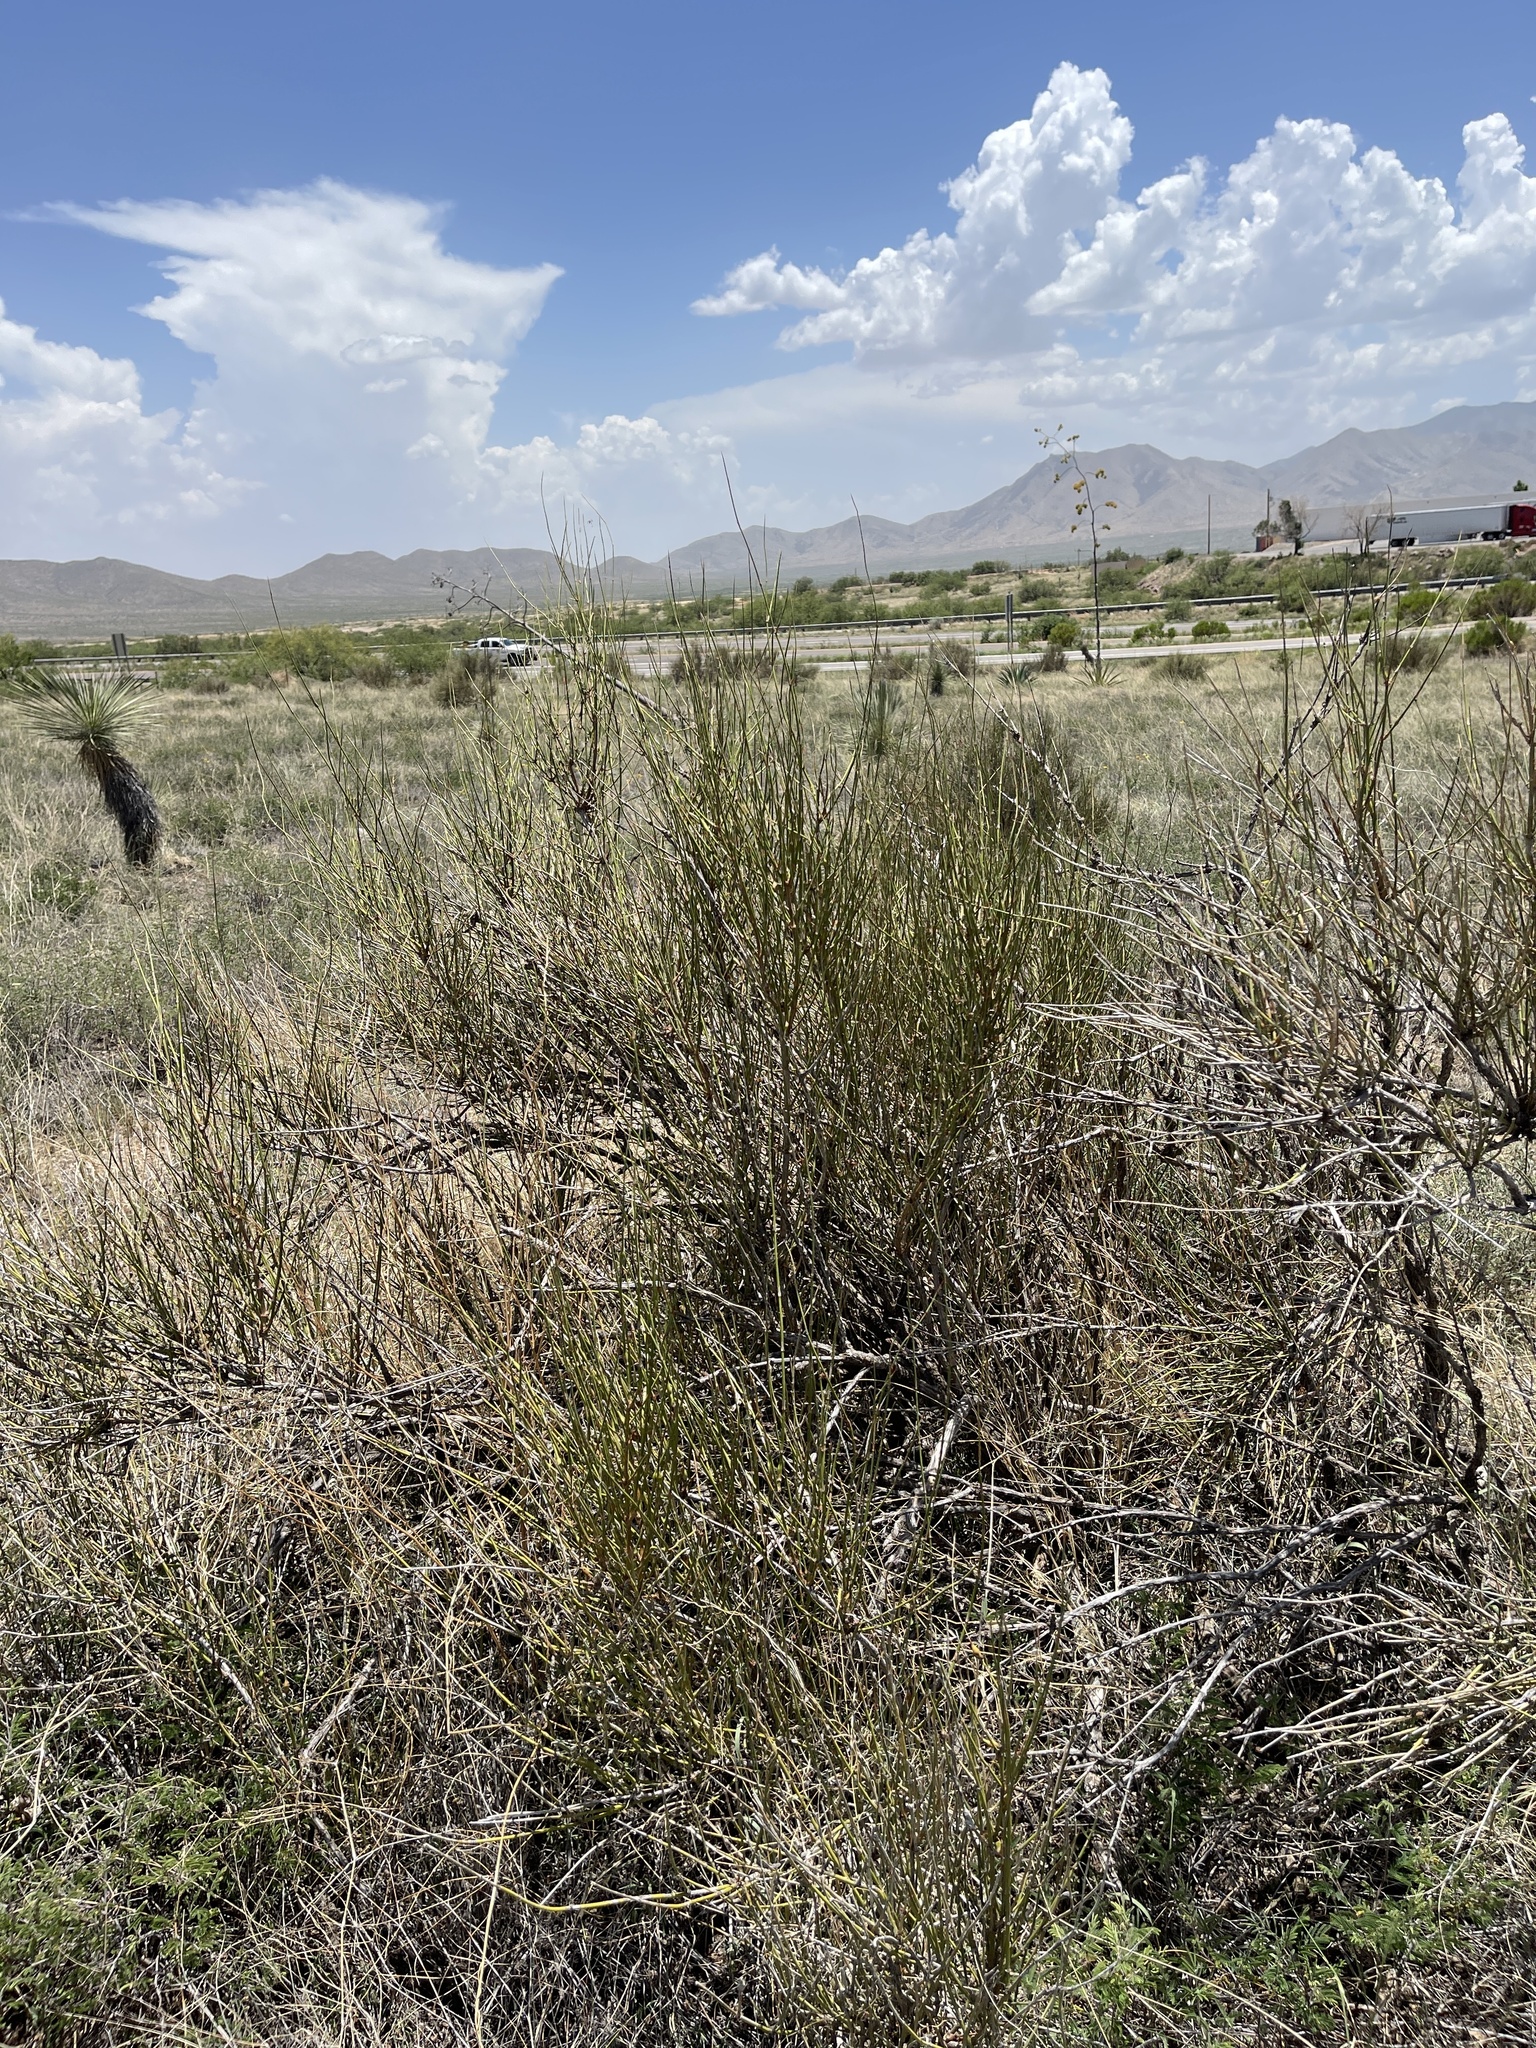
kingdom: Plantae
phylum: Tracheophyta
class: Gnetopsida
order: Ephedrales
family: Ephedraceae
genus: Ephedra
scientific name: Ephedra trifurca
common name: Mexican-tea
